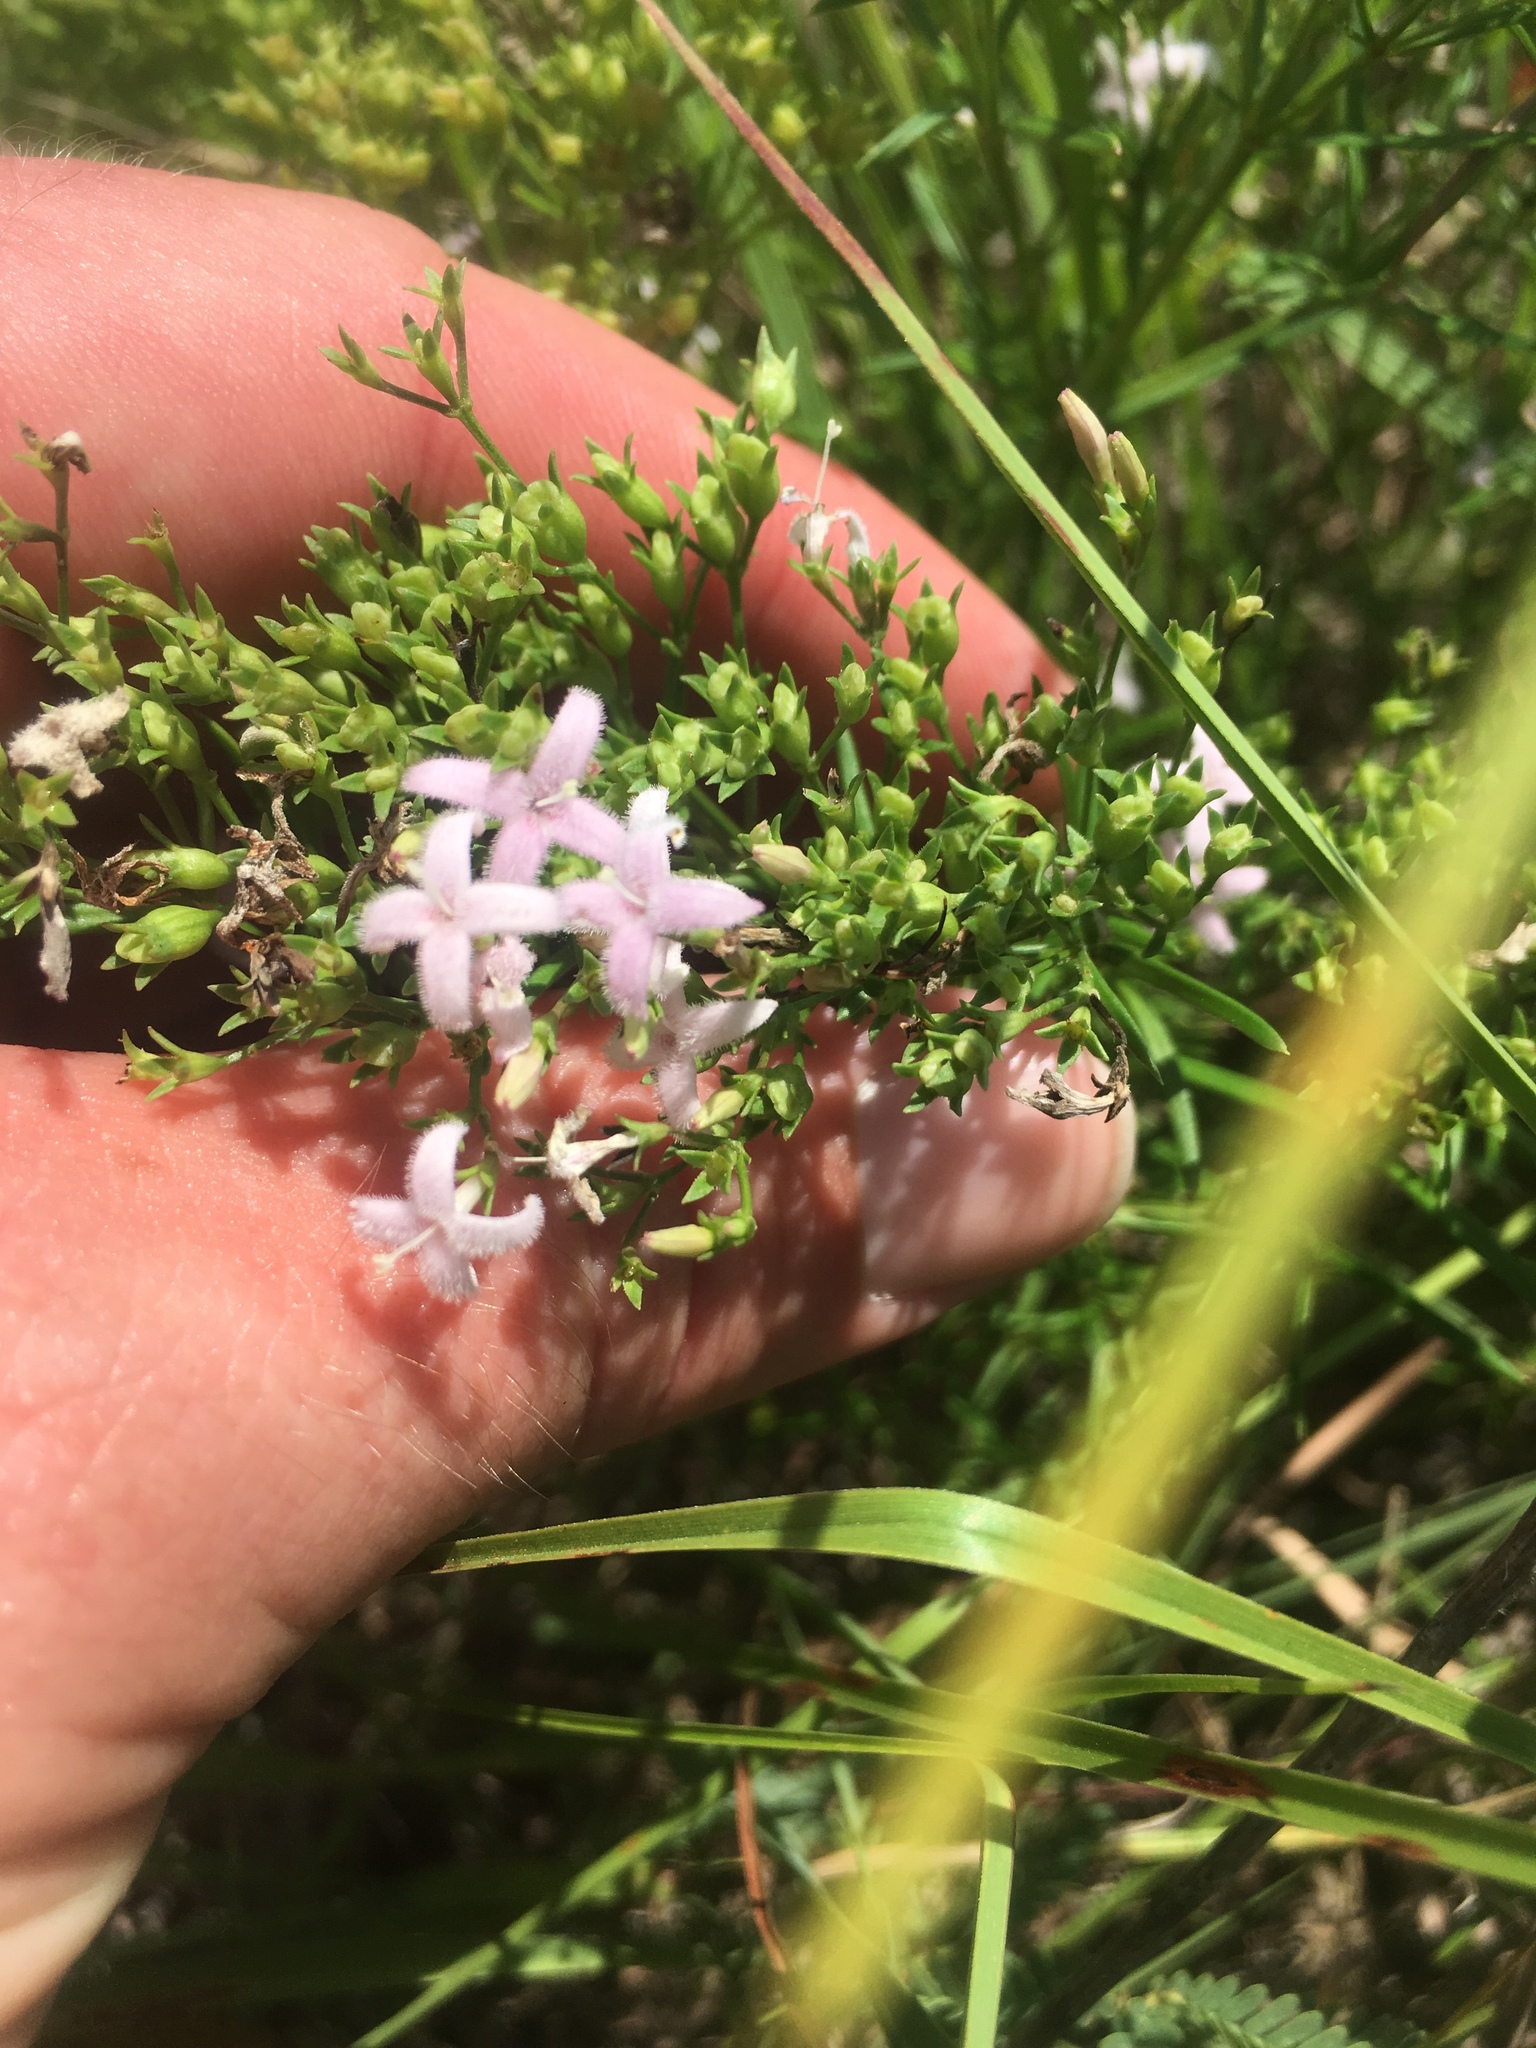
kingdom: Plantae
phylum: Tracheophyta
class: Magnoliopsida
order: Gentianales
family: Rubiaceae
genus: Stenaria
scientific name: Stenaria nigricans
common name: Diamondflowers
